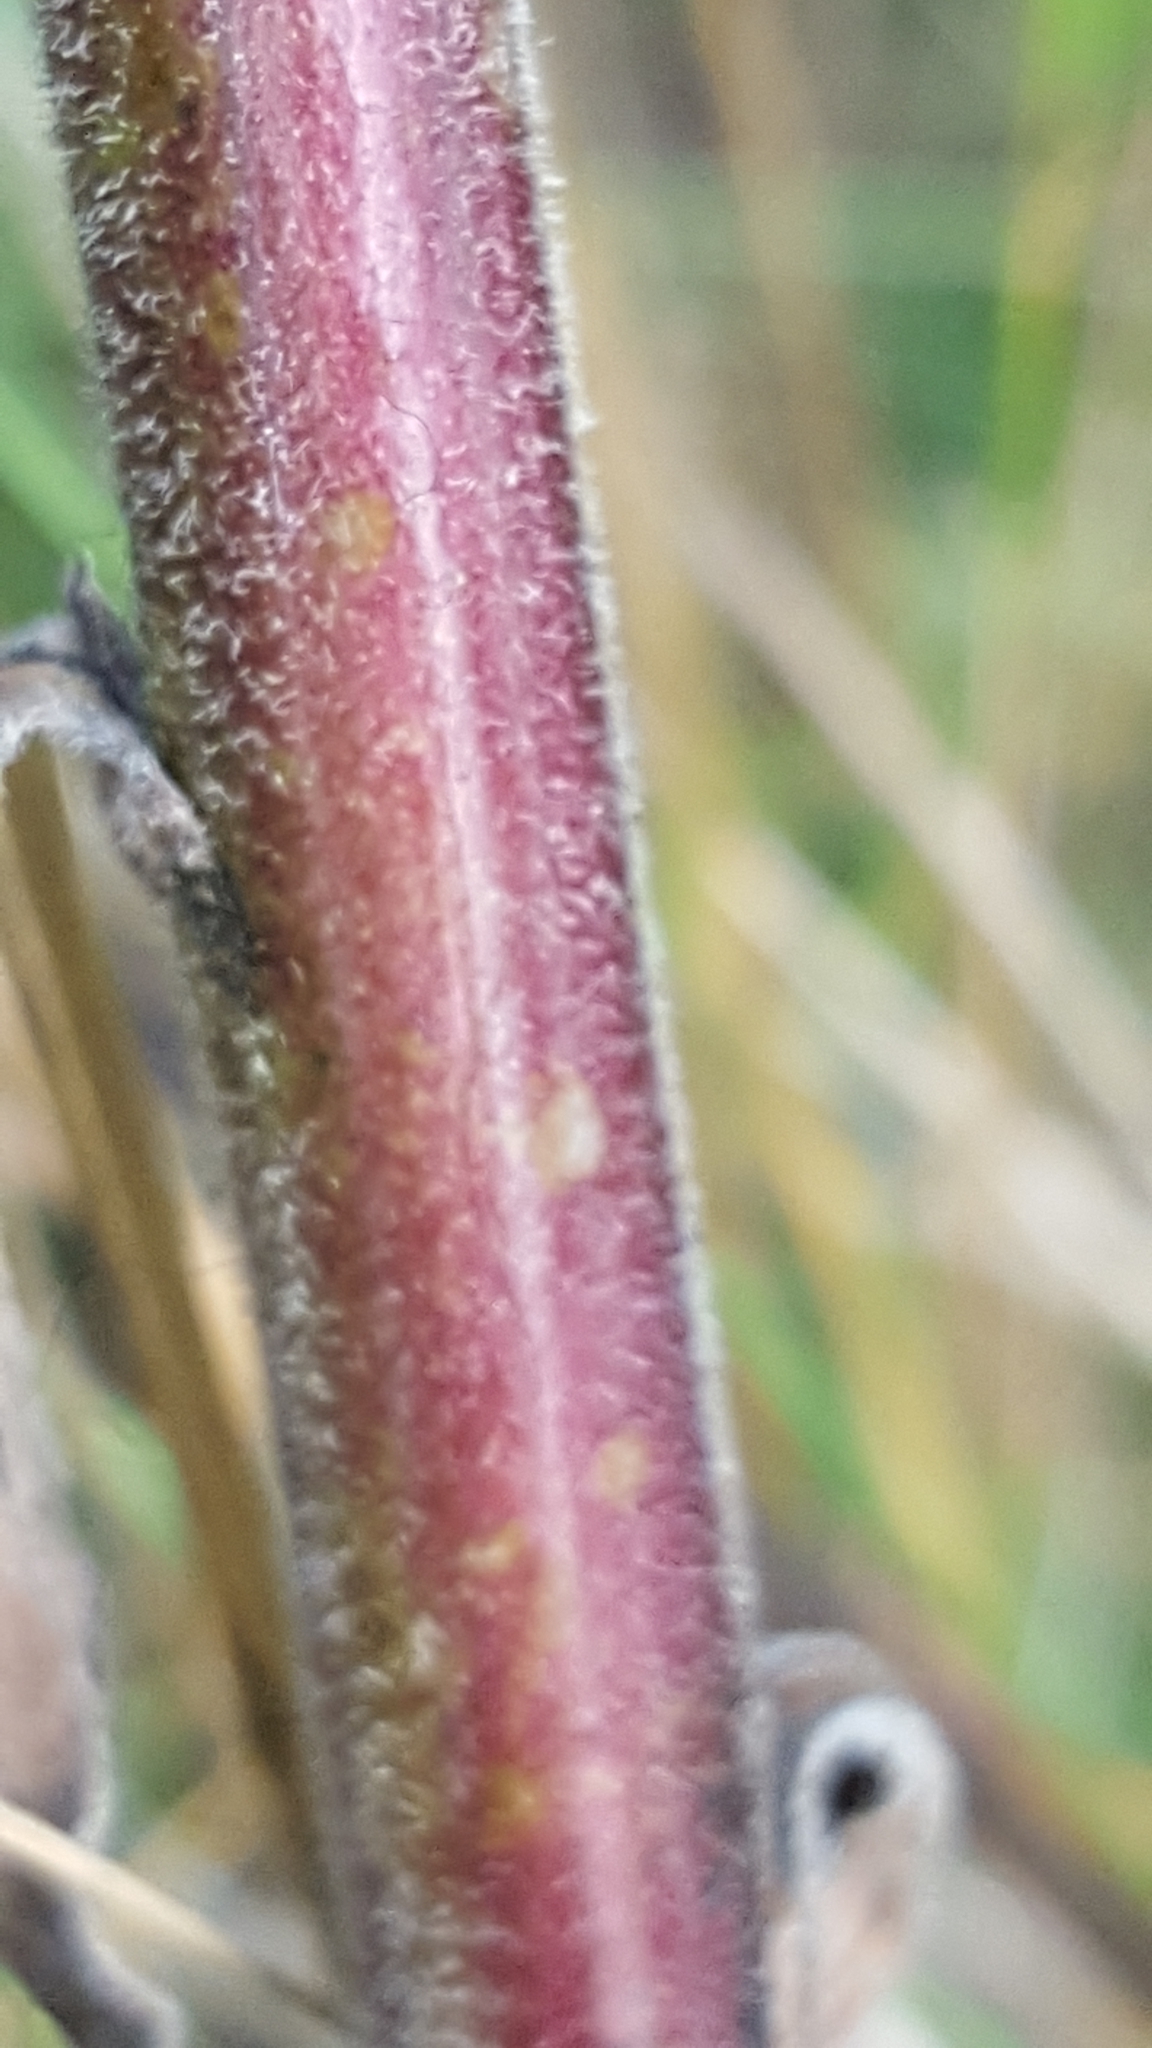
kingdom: Plantae
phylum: Tracheophyta
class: Magnoliopsida
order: Asterales
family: Asteraceae
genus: Solidago
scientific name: Solidago canadensis
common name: Canada goldenrod
